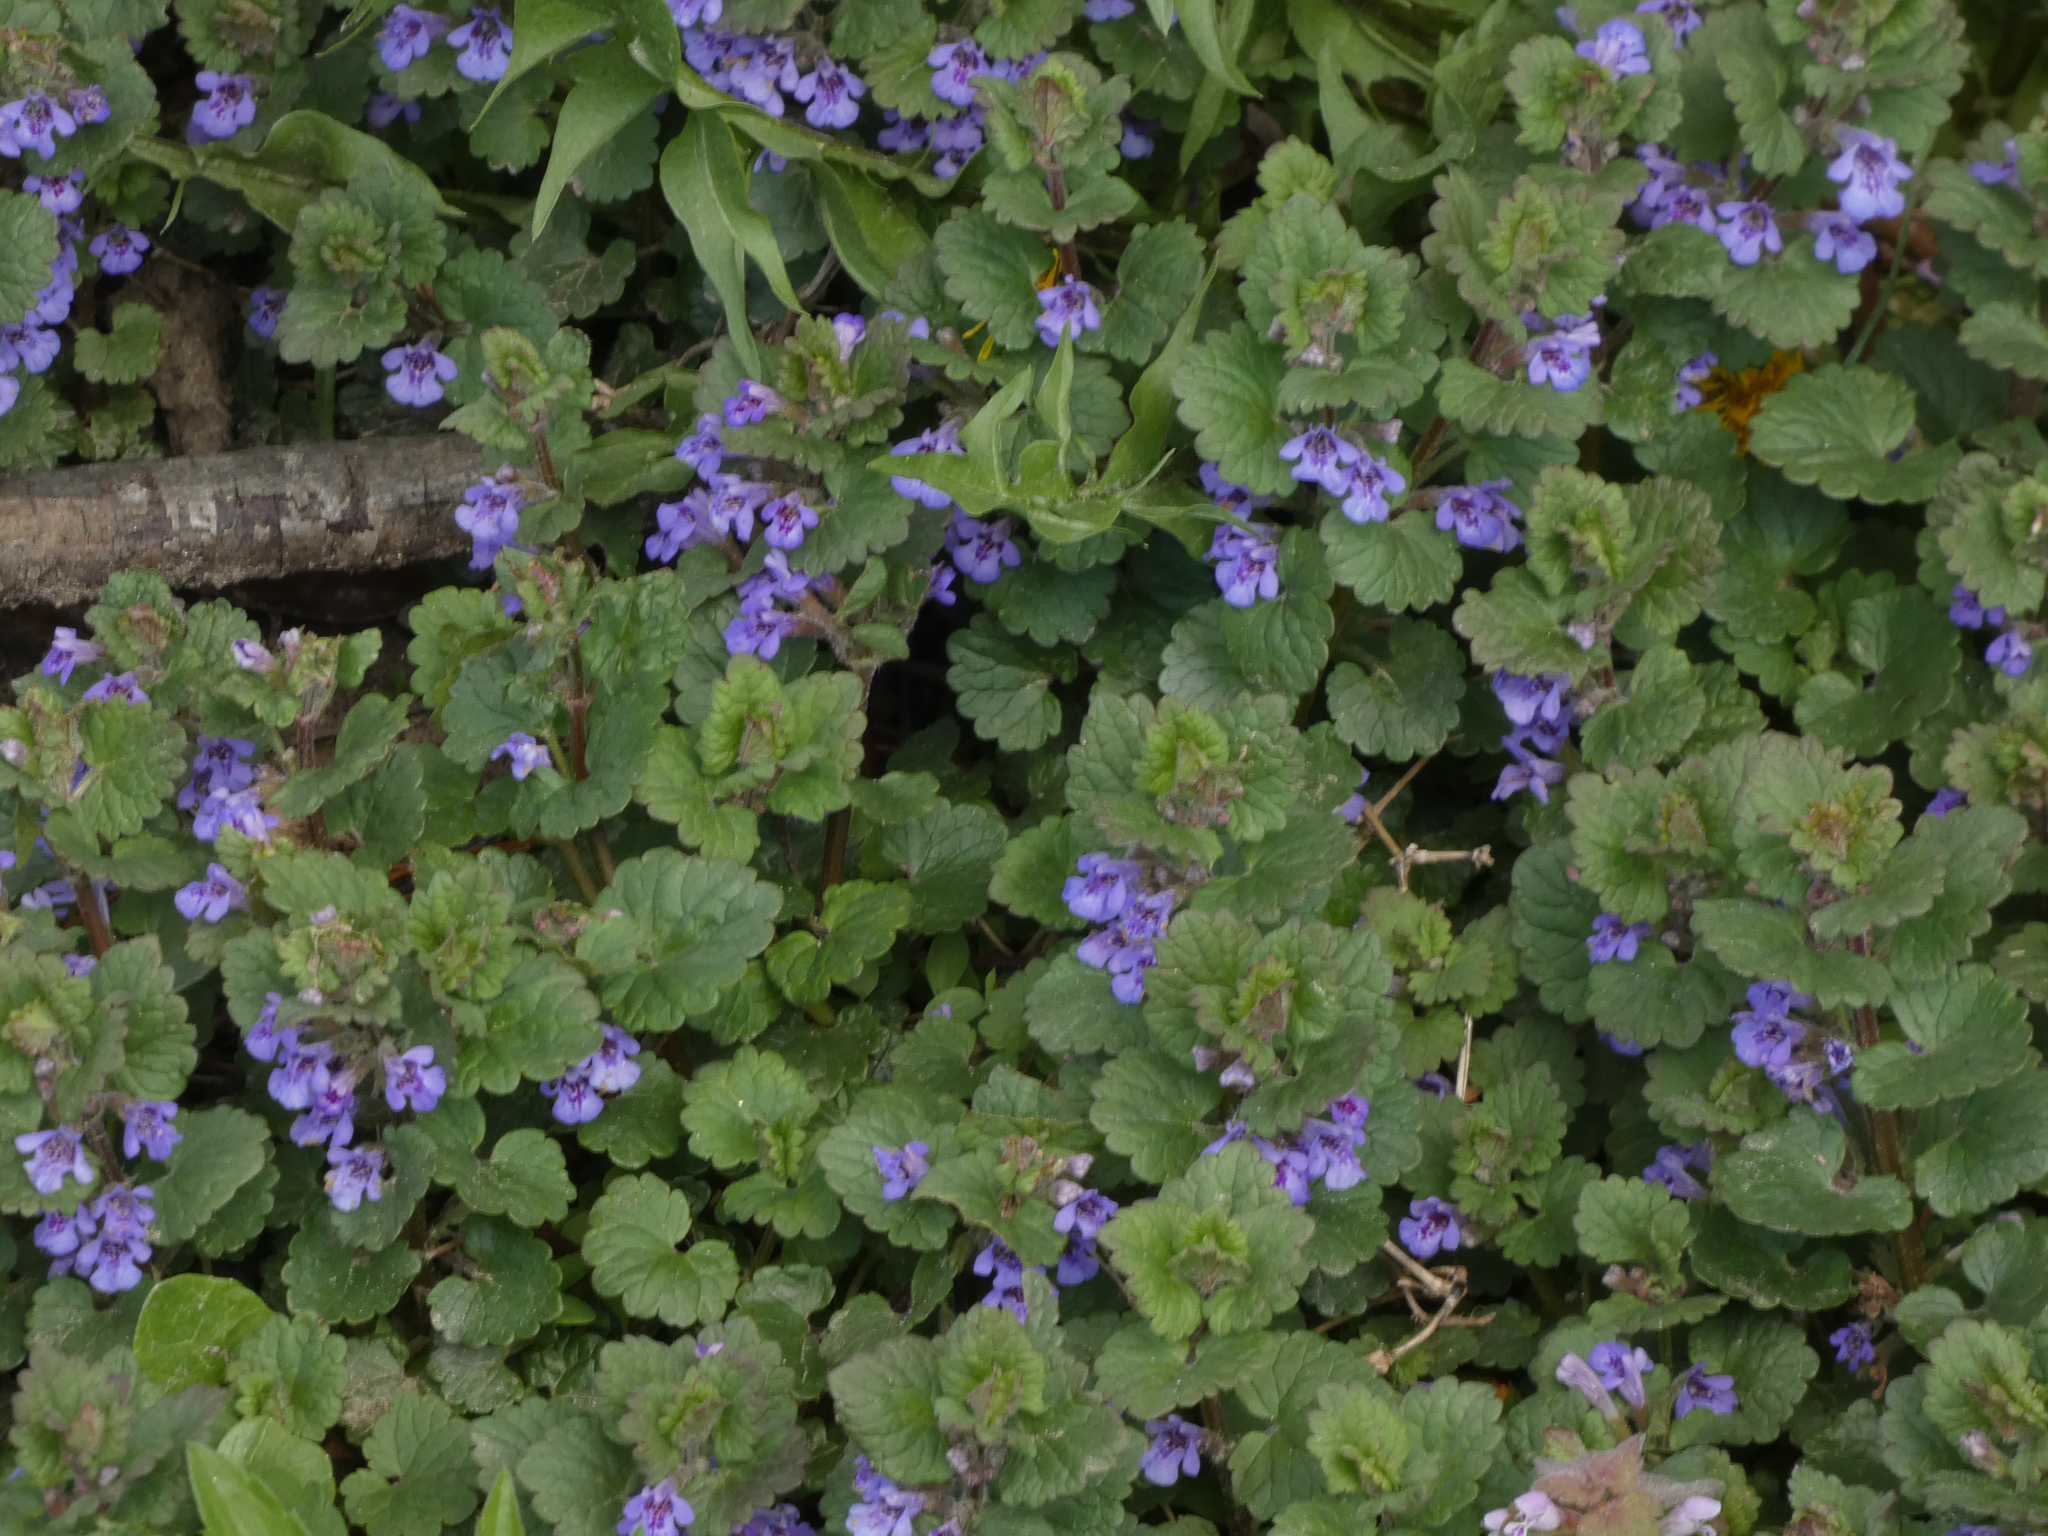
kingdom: Plantae
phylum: Tracheophyta
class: Magnoliopsida
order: Lamiales
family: Lamiaceae
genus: Glechoma
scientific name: Glechoma hederacea
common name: Ground ivy
